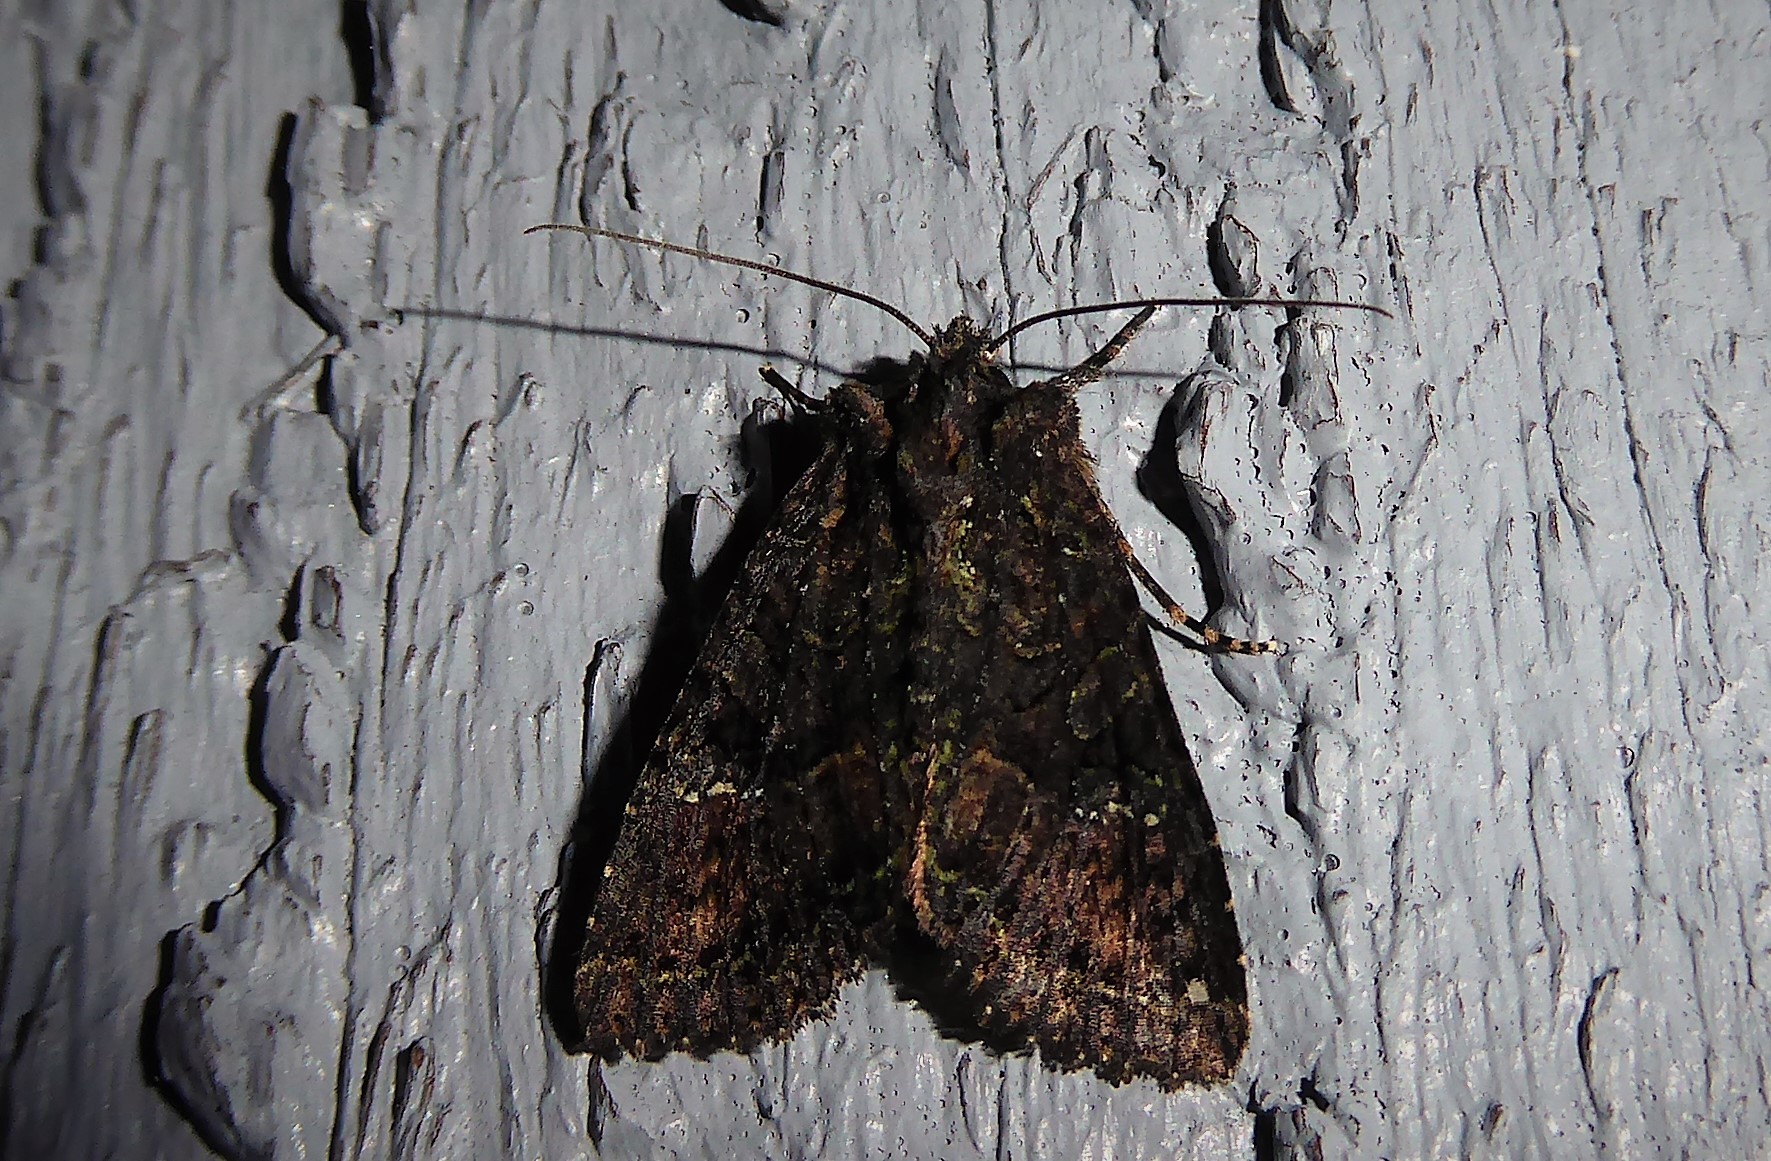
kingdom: Animalia
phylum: Arthropoda
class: Insecta
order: Lepidoptera
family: Noctuidae
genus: Meterana
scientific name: Meterana ochthistis
